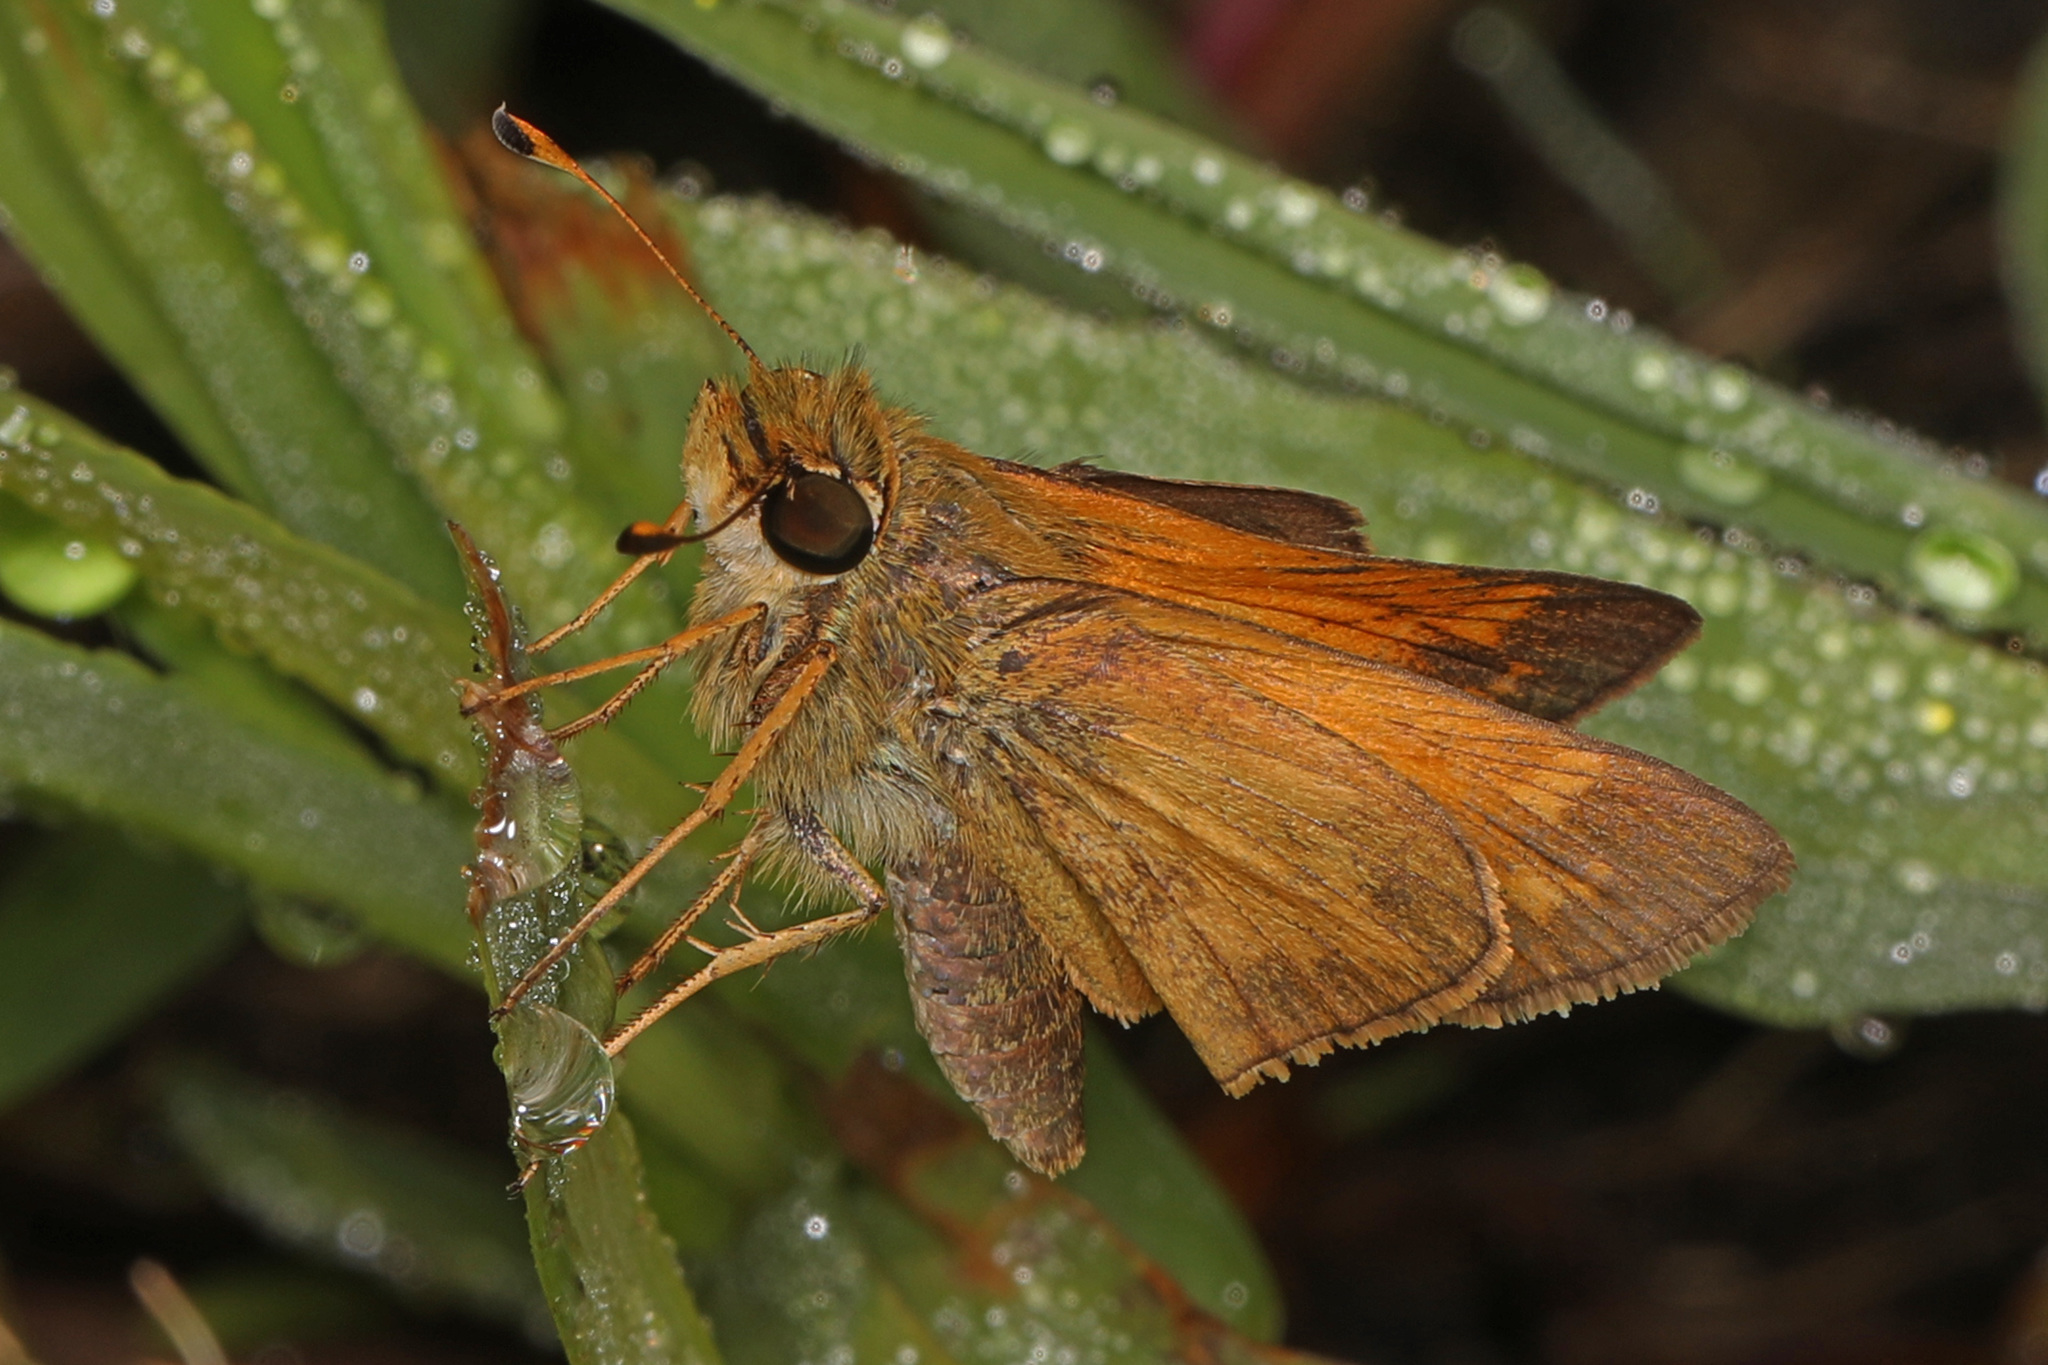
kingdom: Animalia
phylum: Arthropoda
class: Insecta
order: Lepidoptera
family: Hesperiidae
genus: Atalopedes
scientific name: Atalopedes
